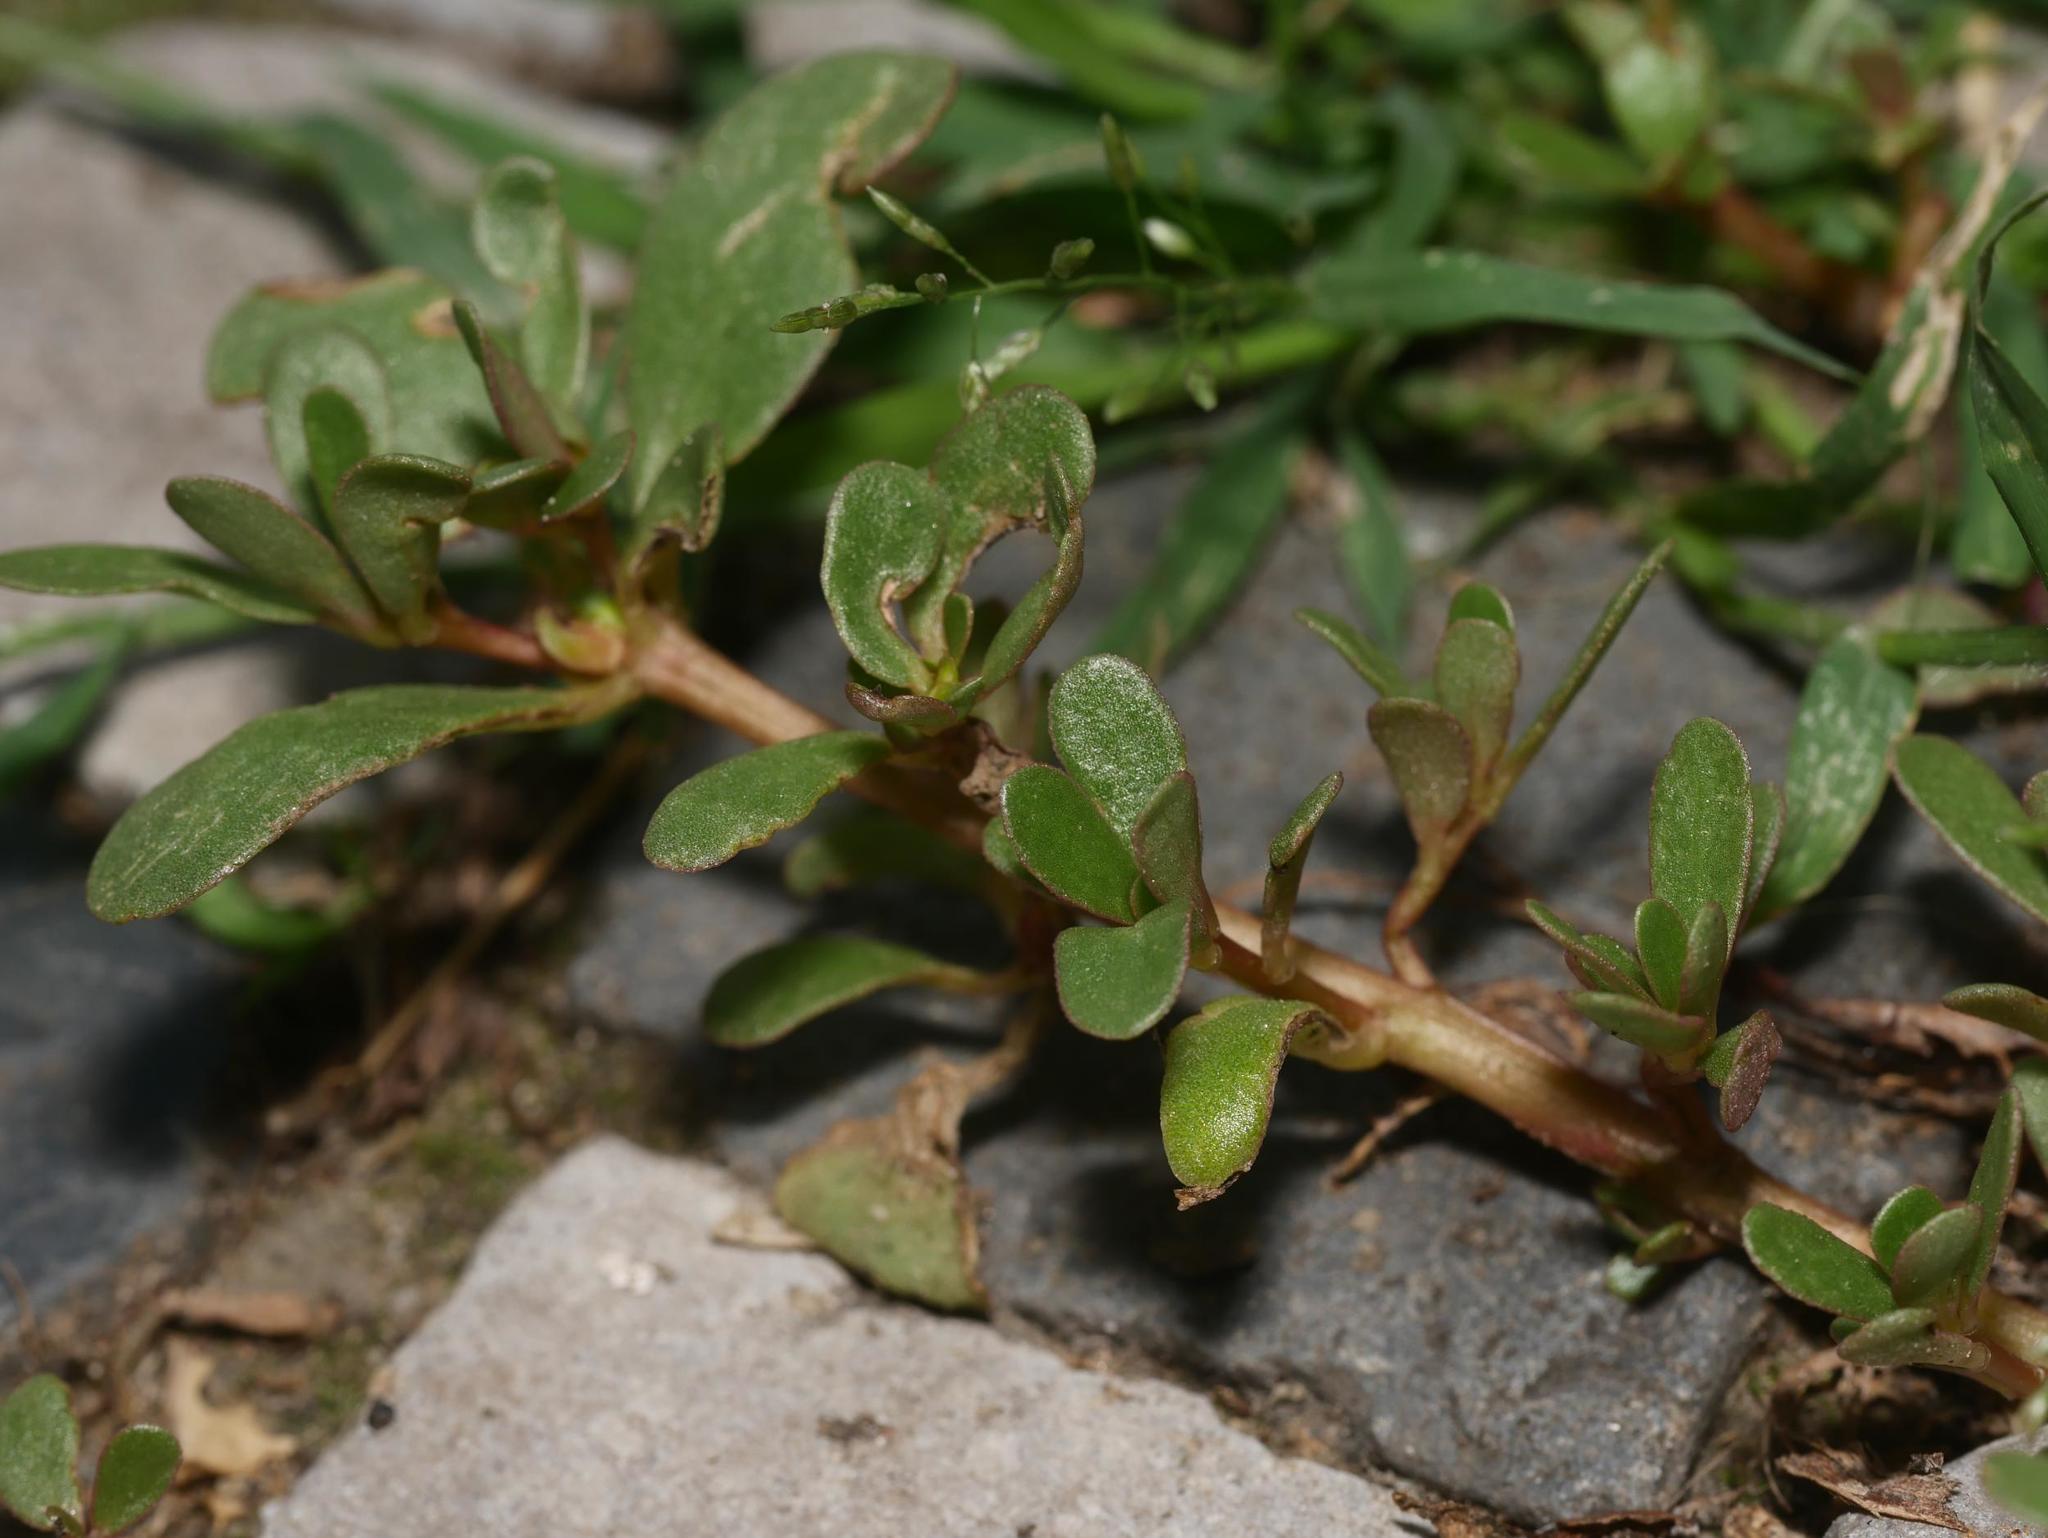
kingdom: Plantae
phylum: Tracheophyta
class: Magnoliopsida
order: Caryophyllales
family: Portulacaceae
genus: Portulaca
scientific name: Portulaca oleracea
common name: Common purslane
